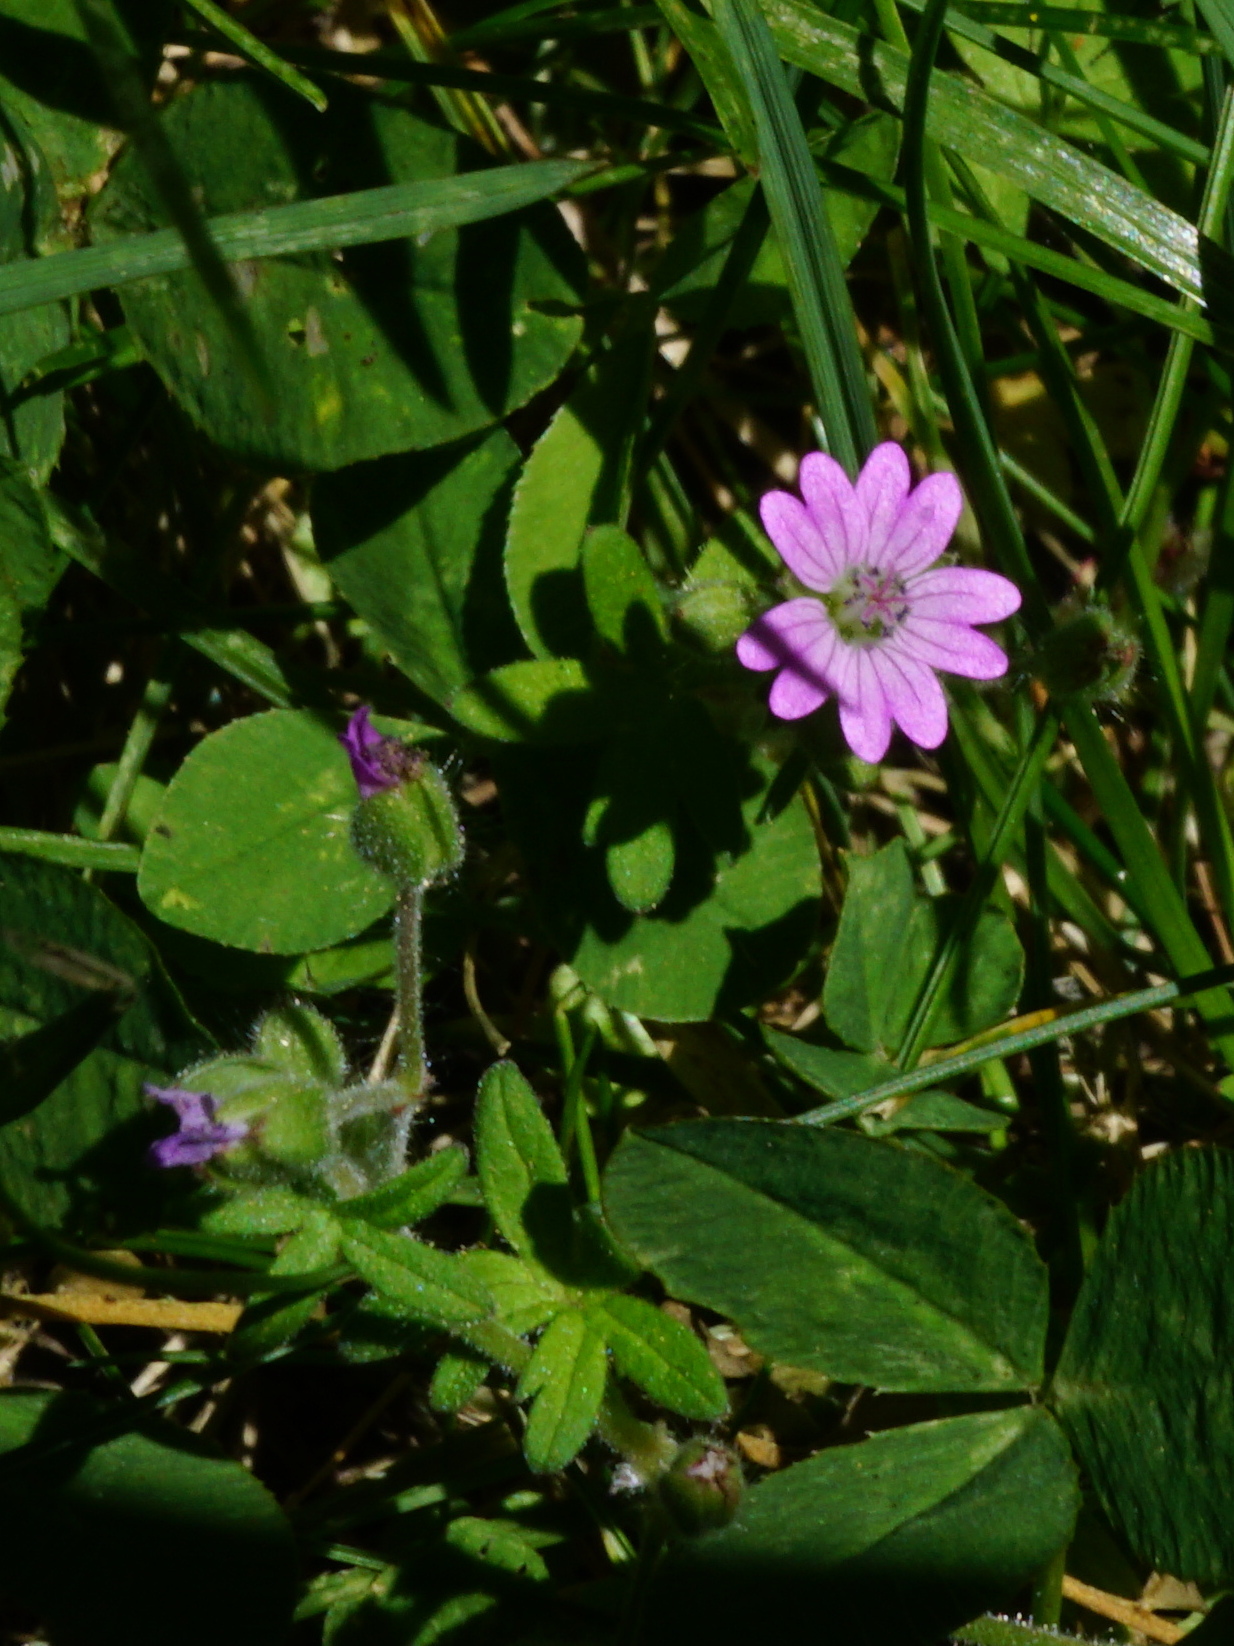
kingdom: Plantae
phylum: Tracheophyta
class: Magnoliopsida
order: Geraniales
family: Geraniaceae
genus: Geranium
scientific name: Geranium molle
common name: Dove's-foot crane's-bill
